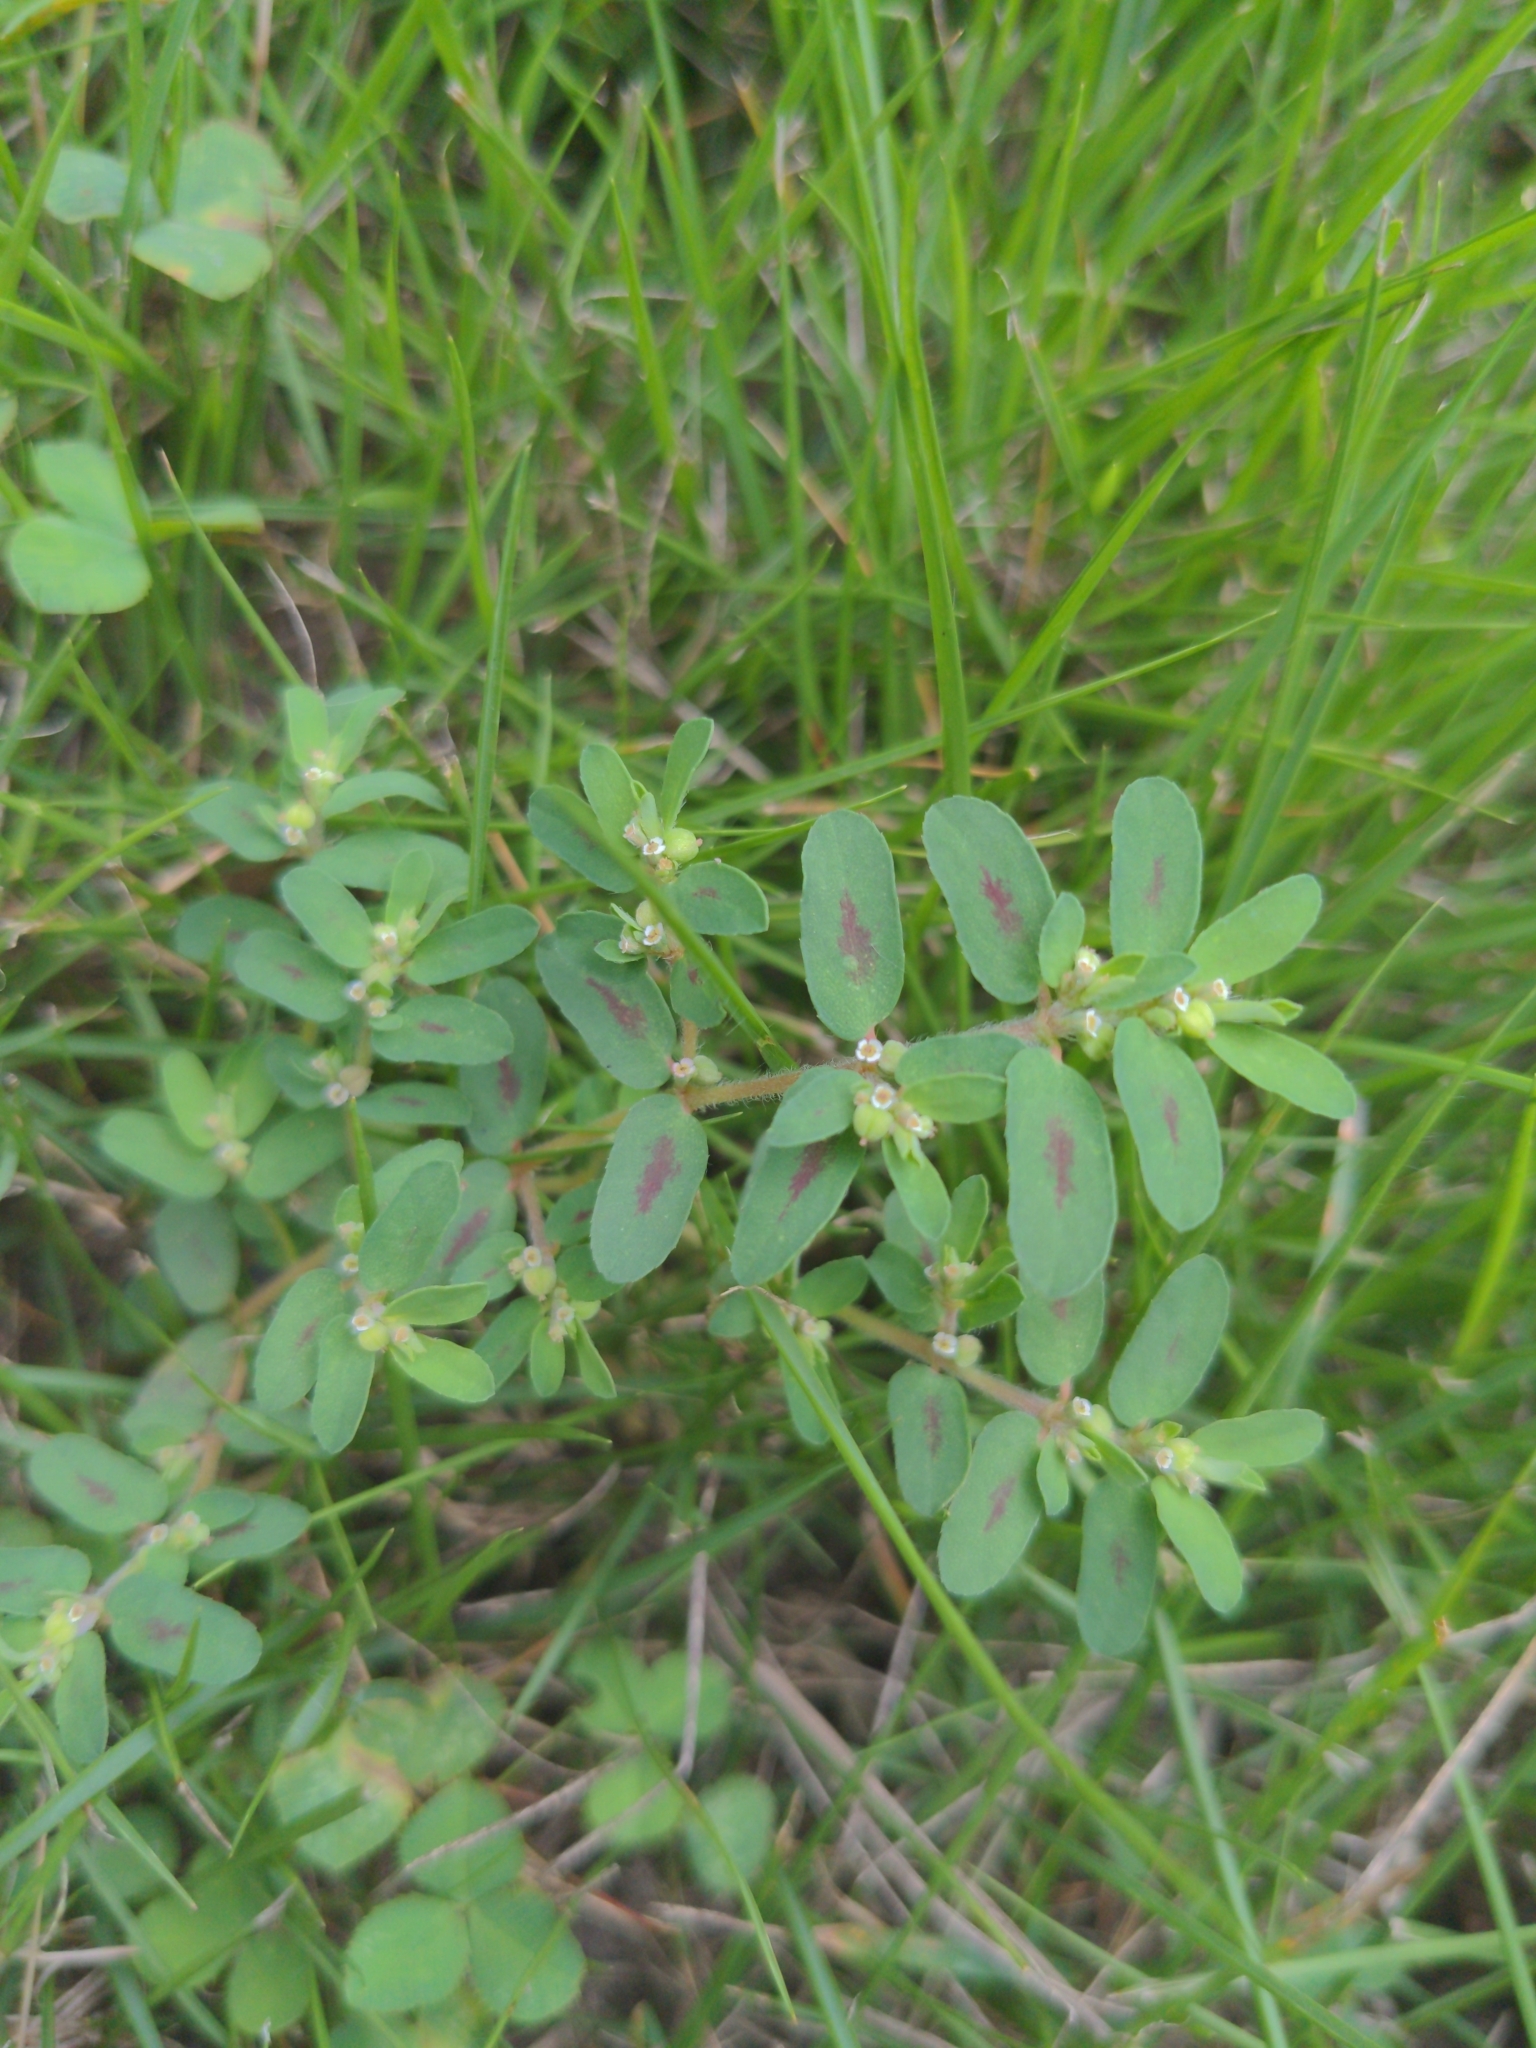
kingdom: Plantae
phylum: Tracheophyta
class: Magnoliopsida
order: Malpighiales
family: Euphorbiaceae
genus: Euphorbia
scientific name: Euphorbia maculata
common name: Spotted spurge
